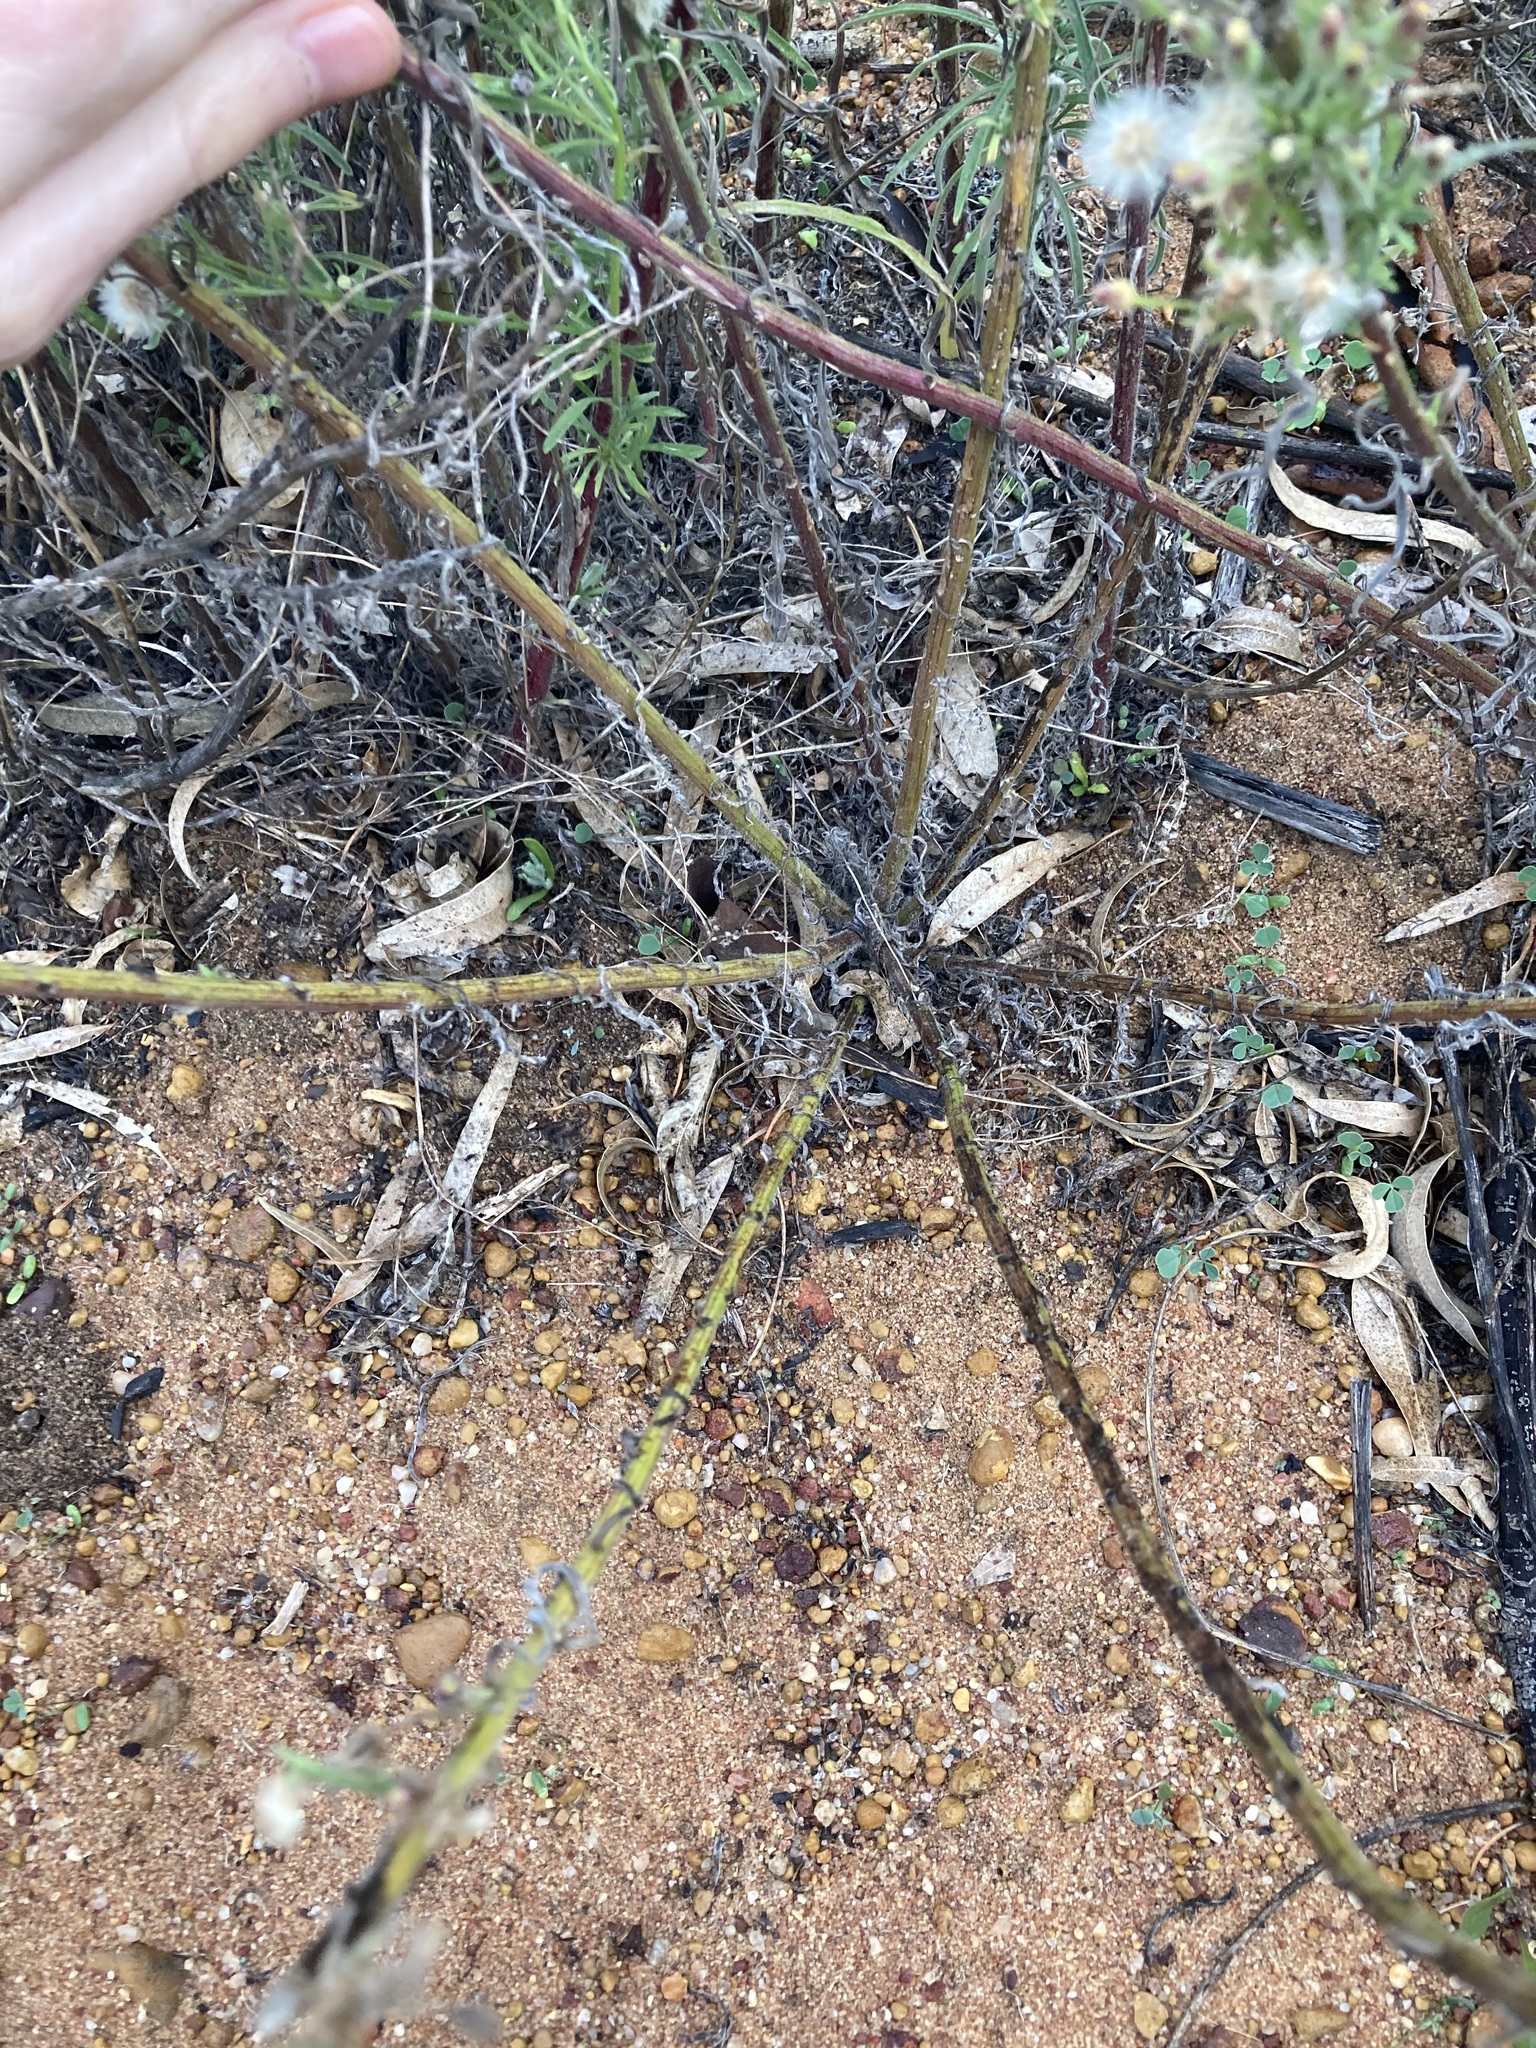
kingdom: Plantae
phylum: Tracheophyta
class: Magnoliopsida
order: Asterales
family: Asteraceae
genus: Erigeron
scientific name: Erigeron bonariensis
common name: Argentine fleabane
